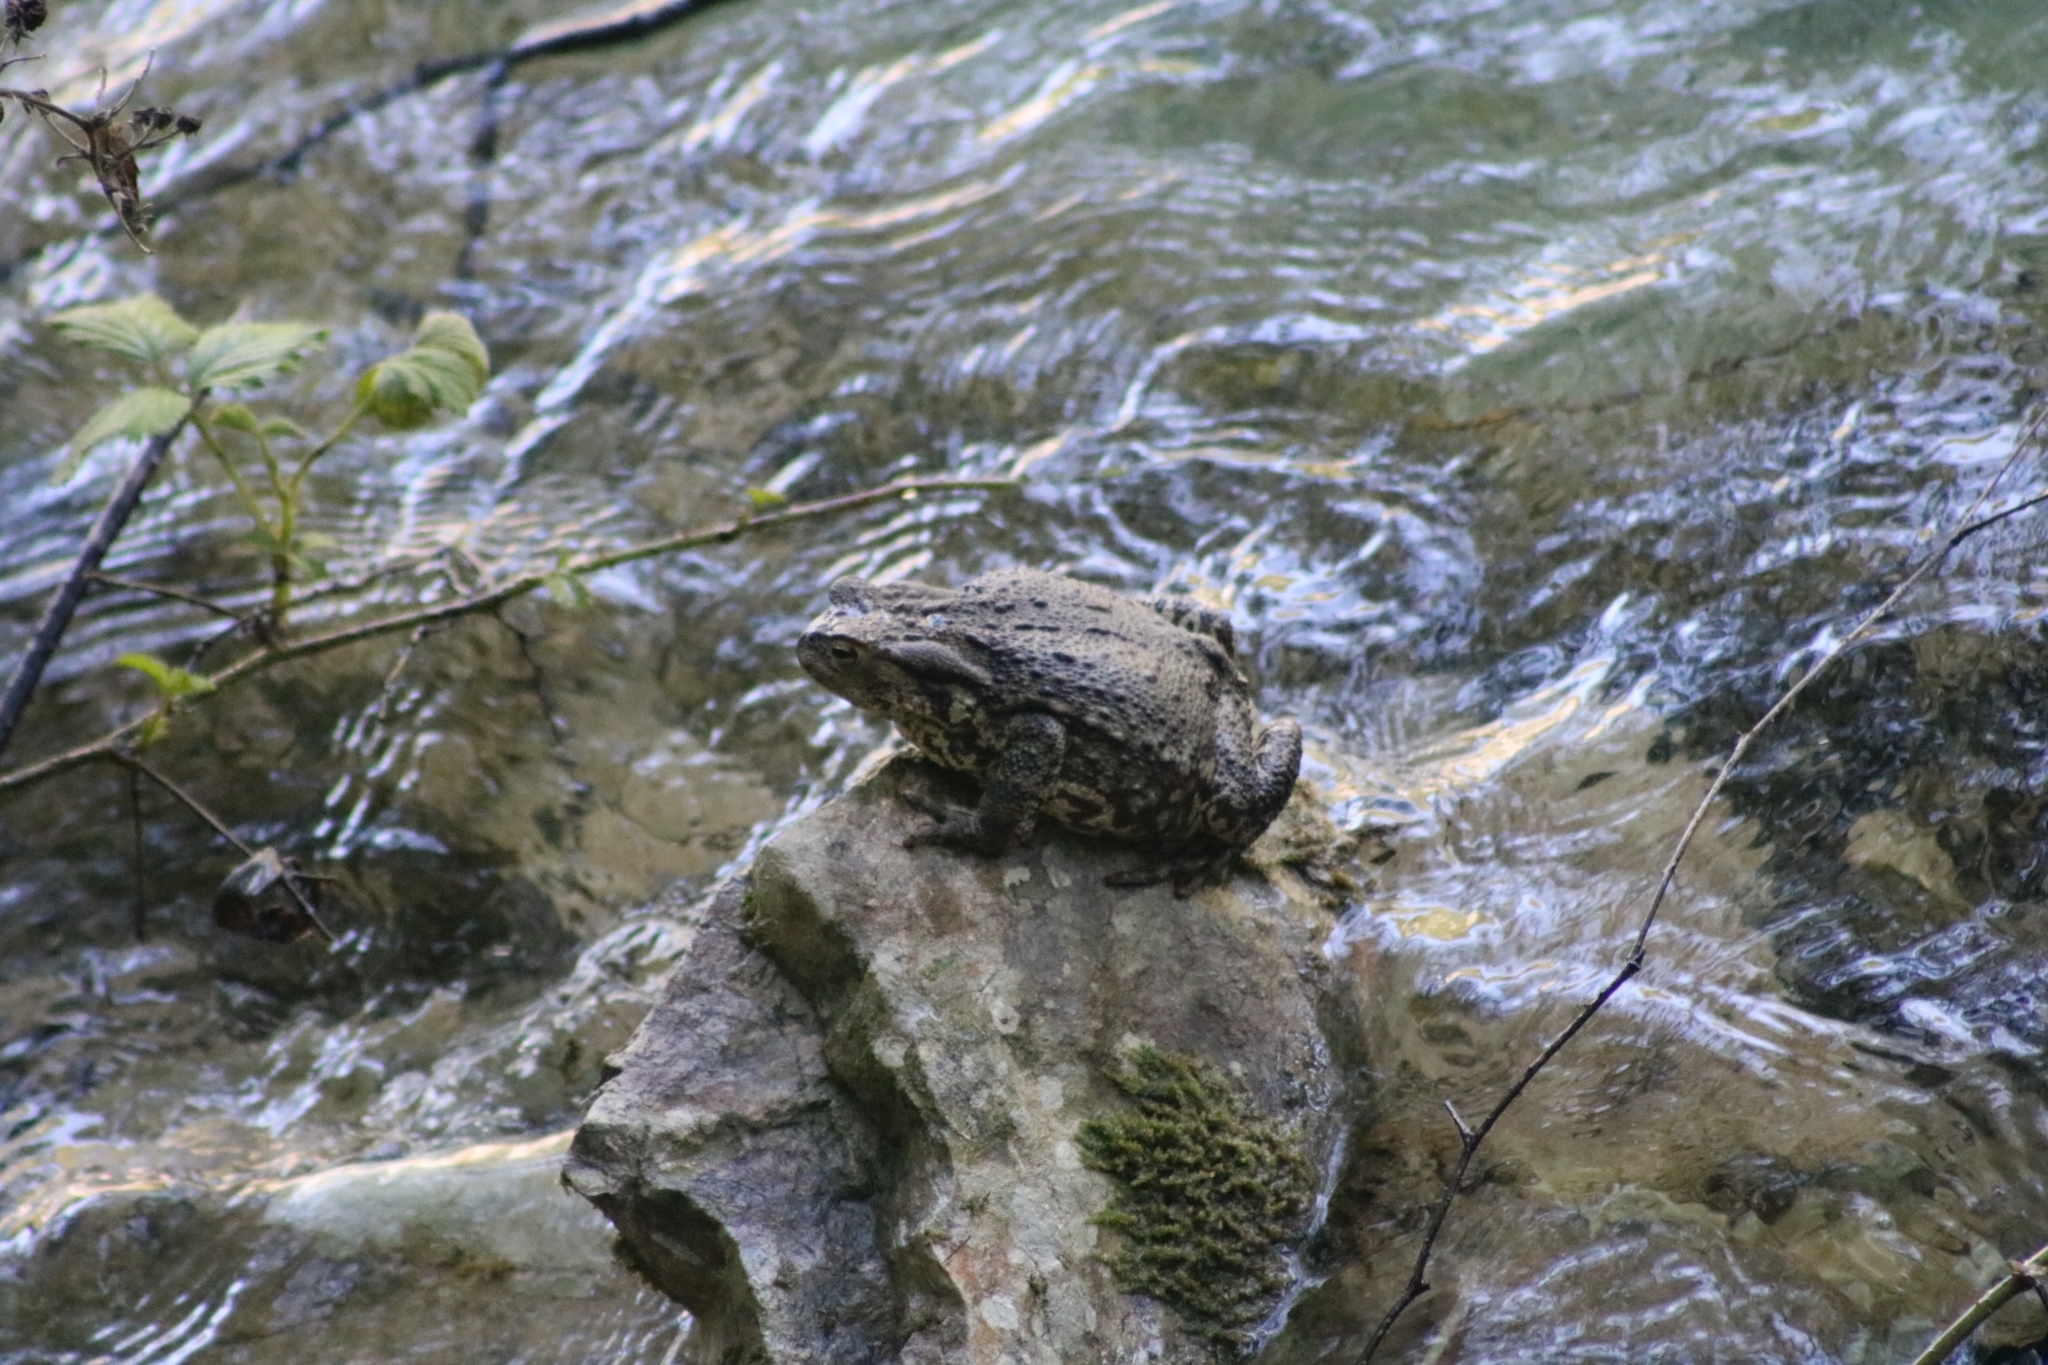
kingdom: Animalia
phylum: Chordata
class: Amphibia
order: Anura
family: Bufonidae
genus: Bufo
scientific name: Bufo bufo
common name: Common toad
